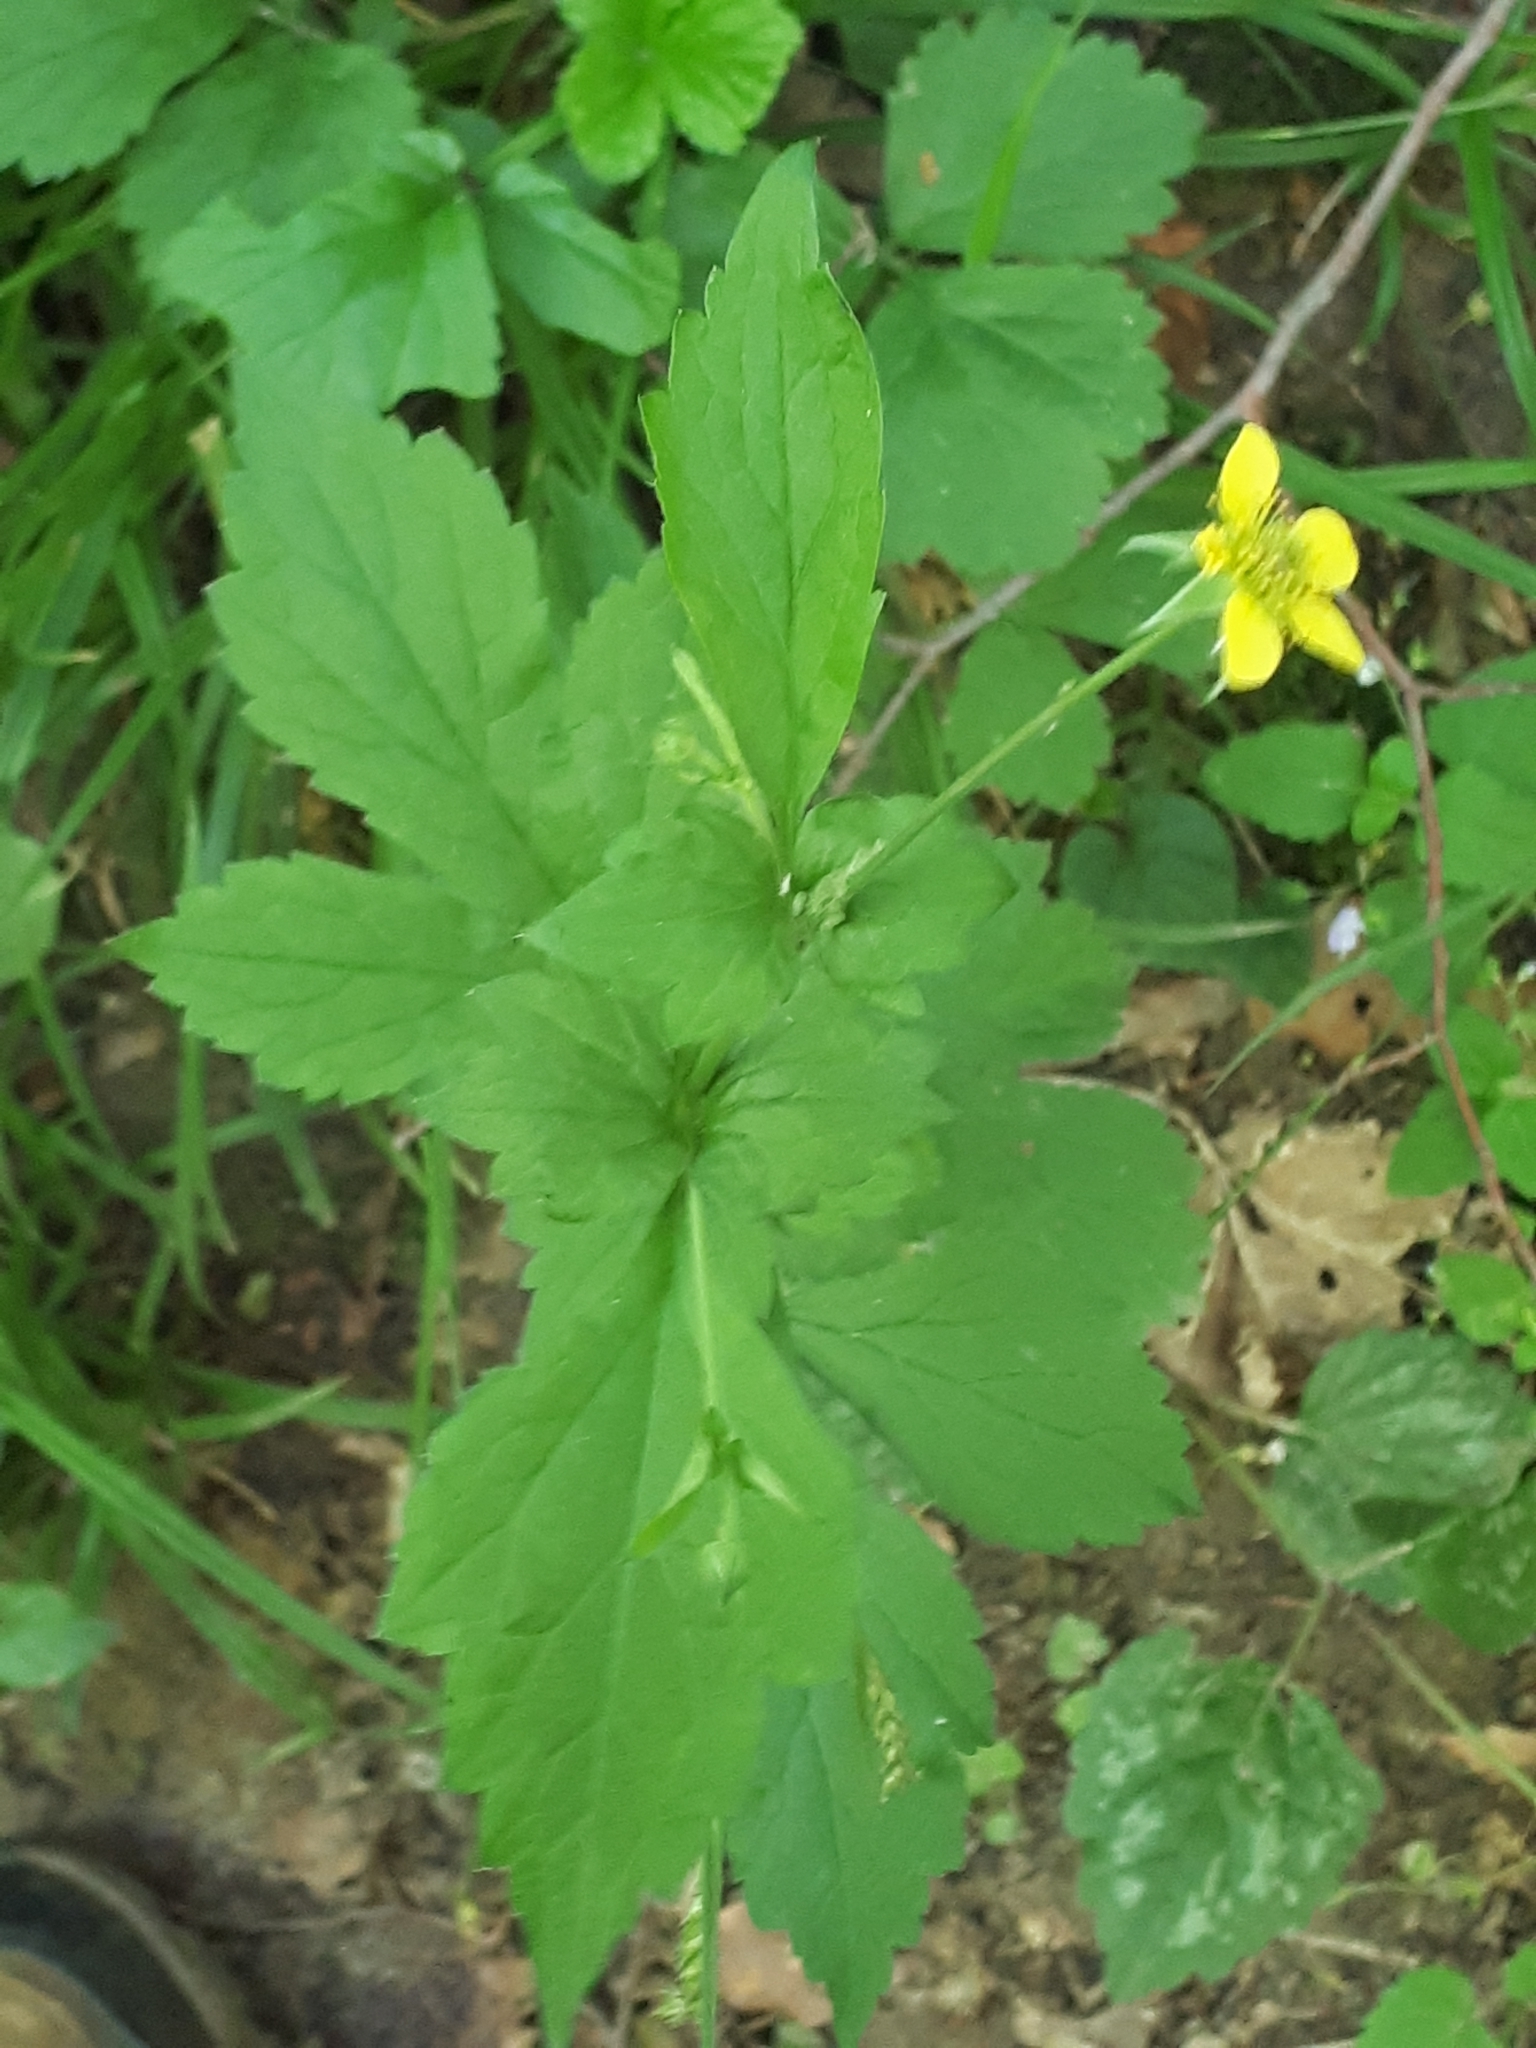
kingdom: Plantae
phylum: Tracheophyta
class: Magnoliopsida
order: Rosales
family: Rosaceae
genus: Geum
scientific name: Geum urbanum
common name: Wood avens
